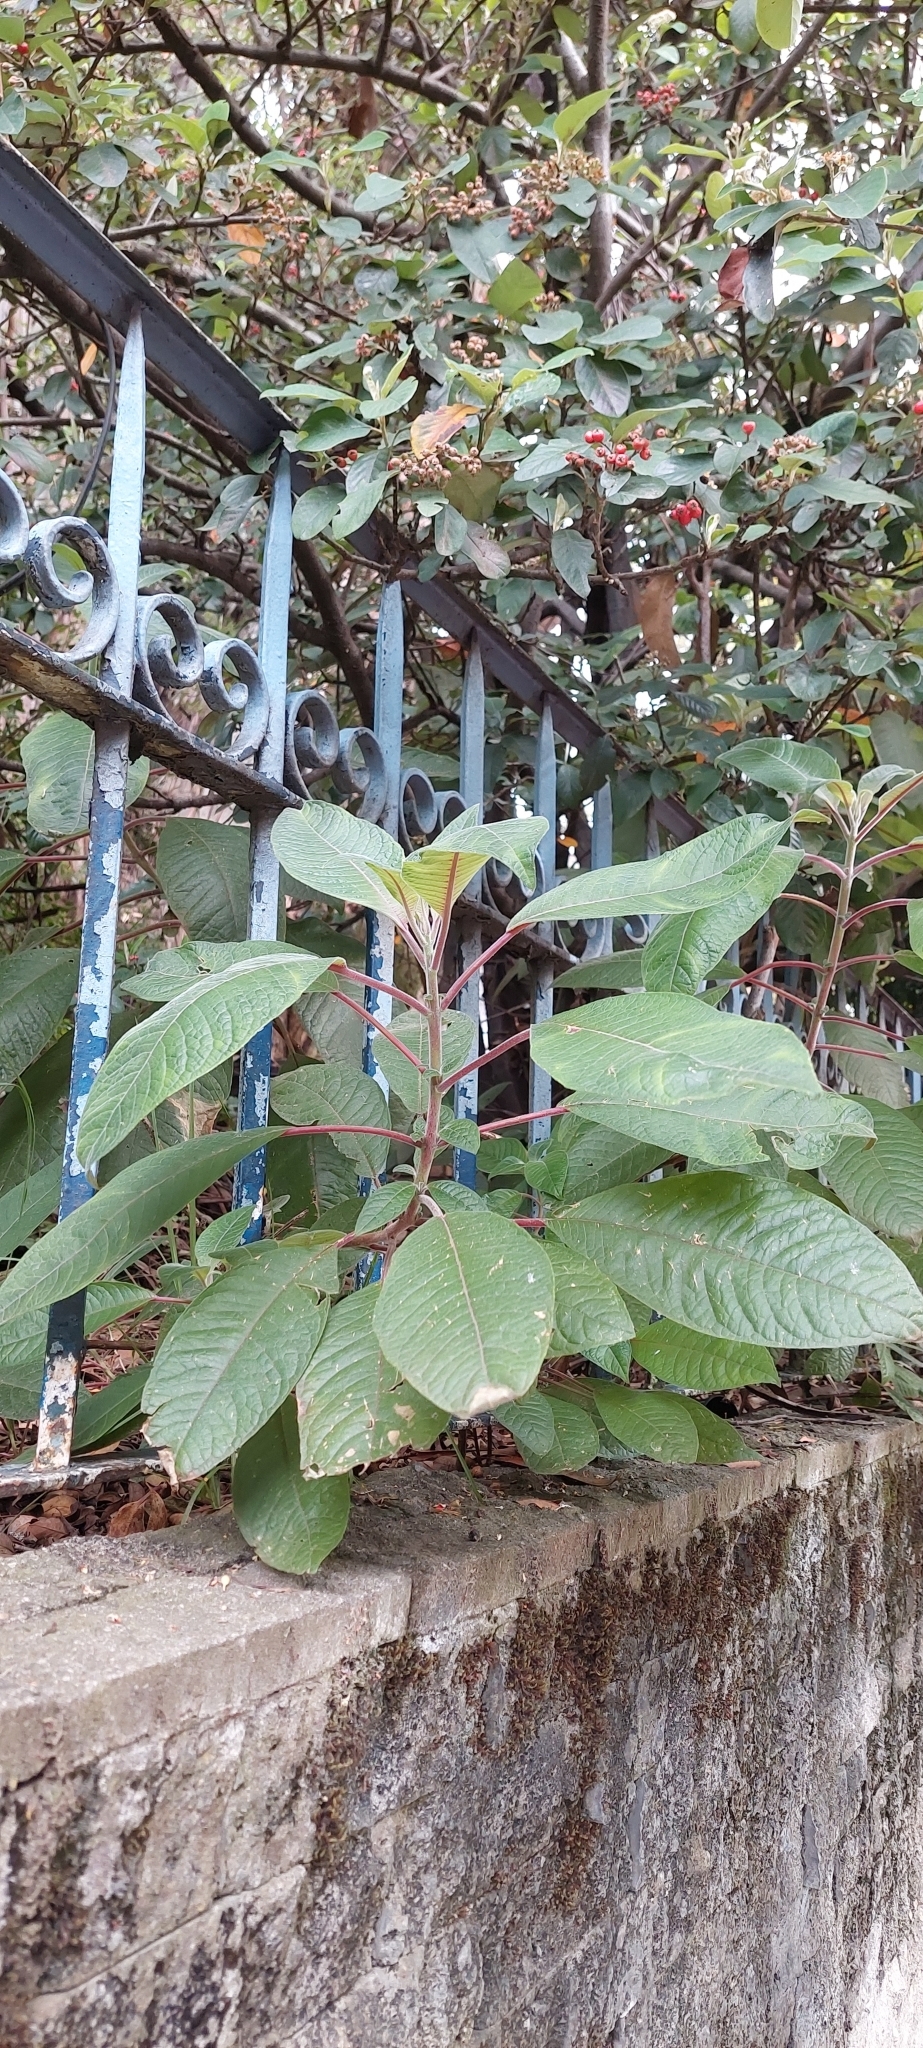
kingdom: Plantae
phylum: Tracheophyta
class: Magnoliopsida
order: Myrtales
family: Onagraceae
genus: Fuchsia
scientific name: Fuchsia boliviana
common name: Bolivian fuchsia
